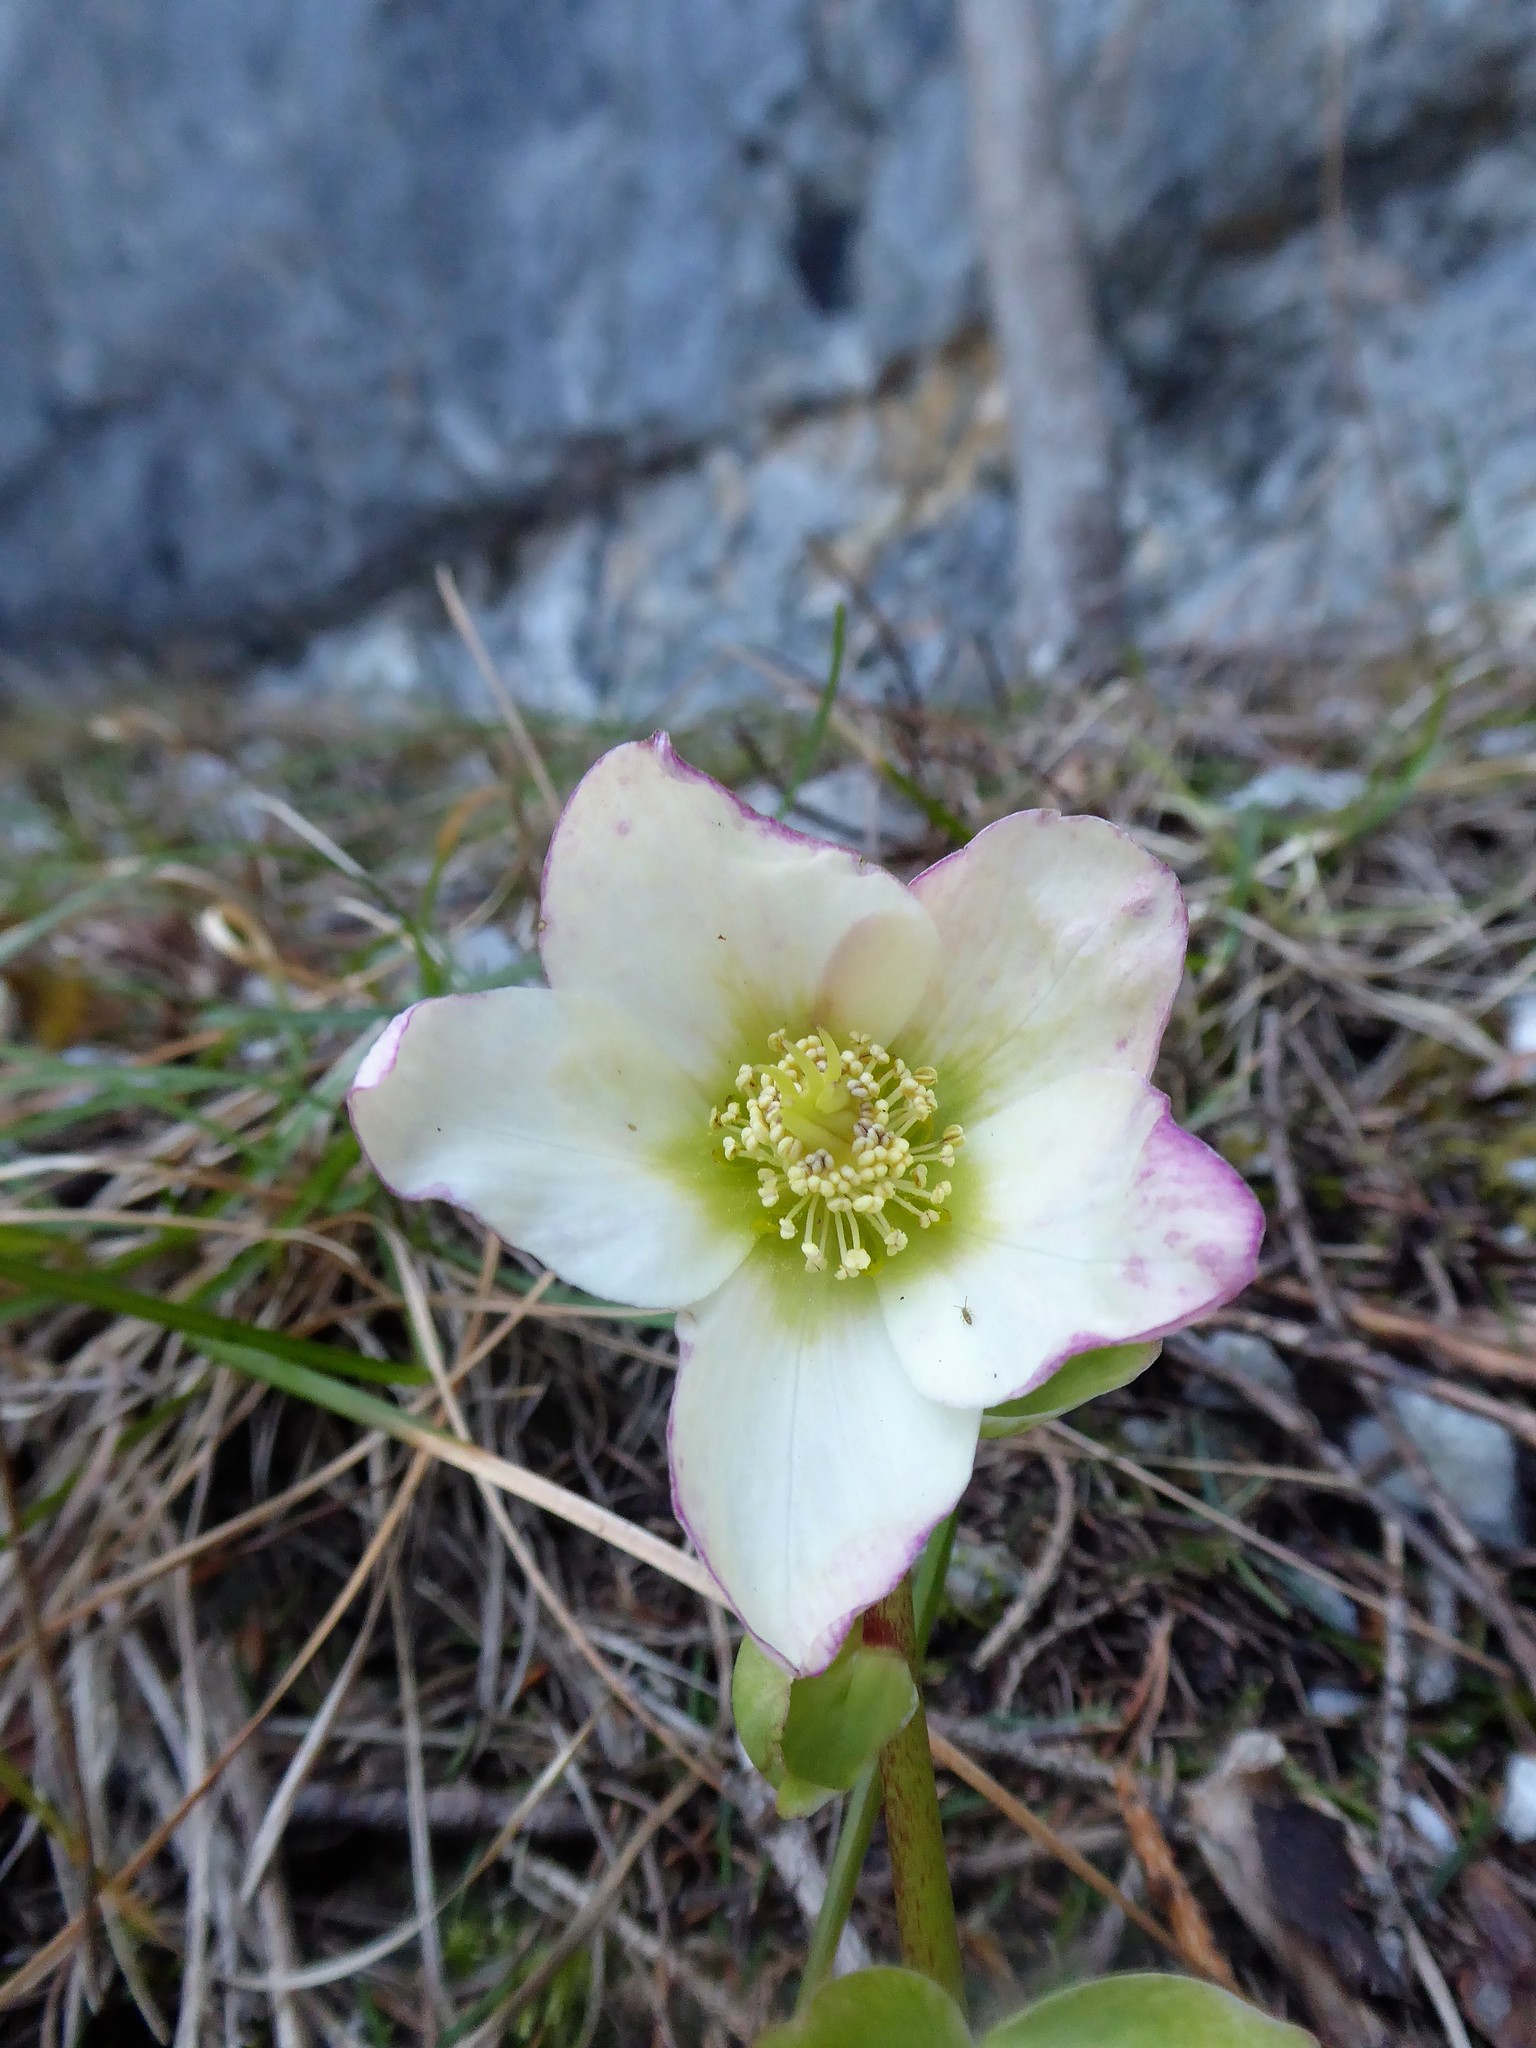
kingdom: Plantae
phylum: Tracheophyta
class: Magnoliopsida
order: Ranunculales
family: Ranunculaceae
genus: Helleborus
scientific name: Helleborus niger
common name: Black hellebore
